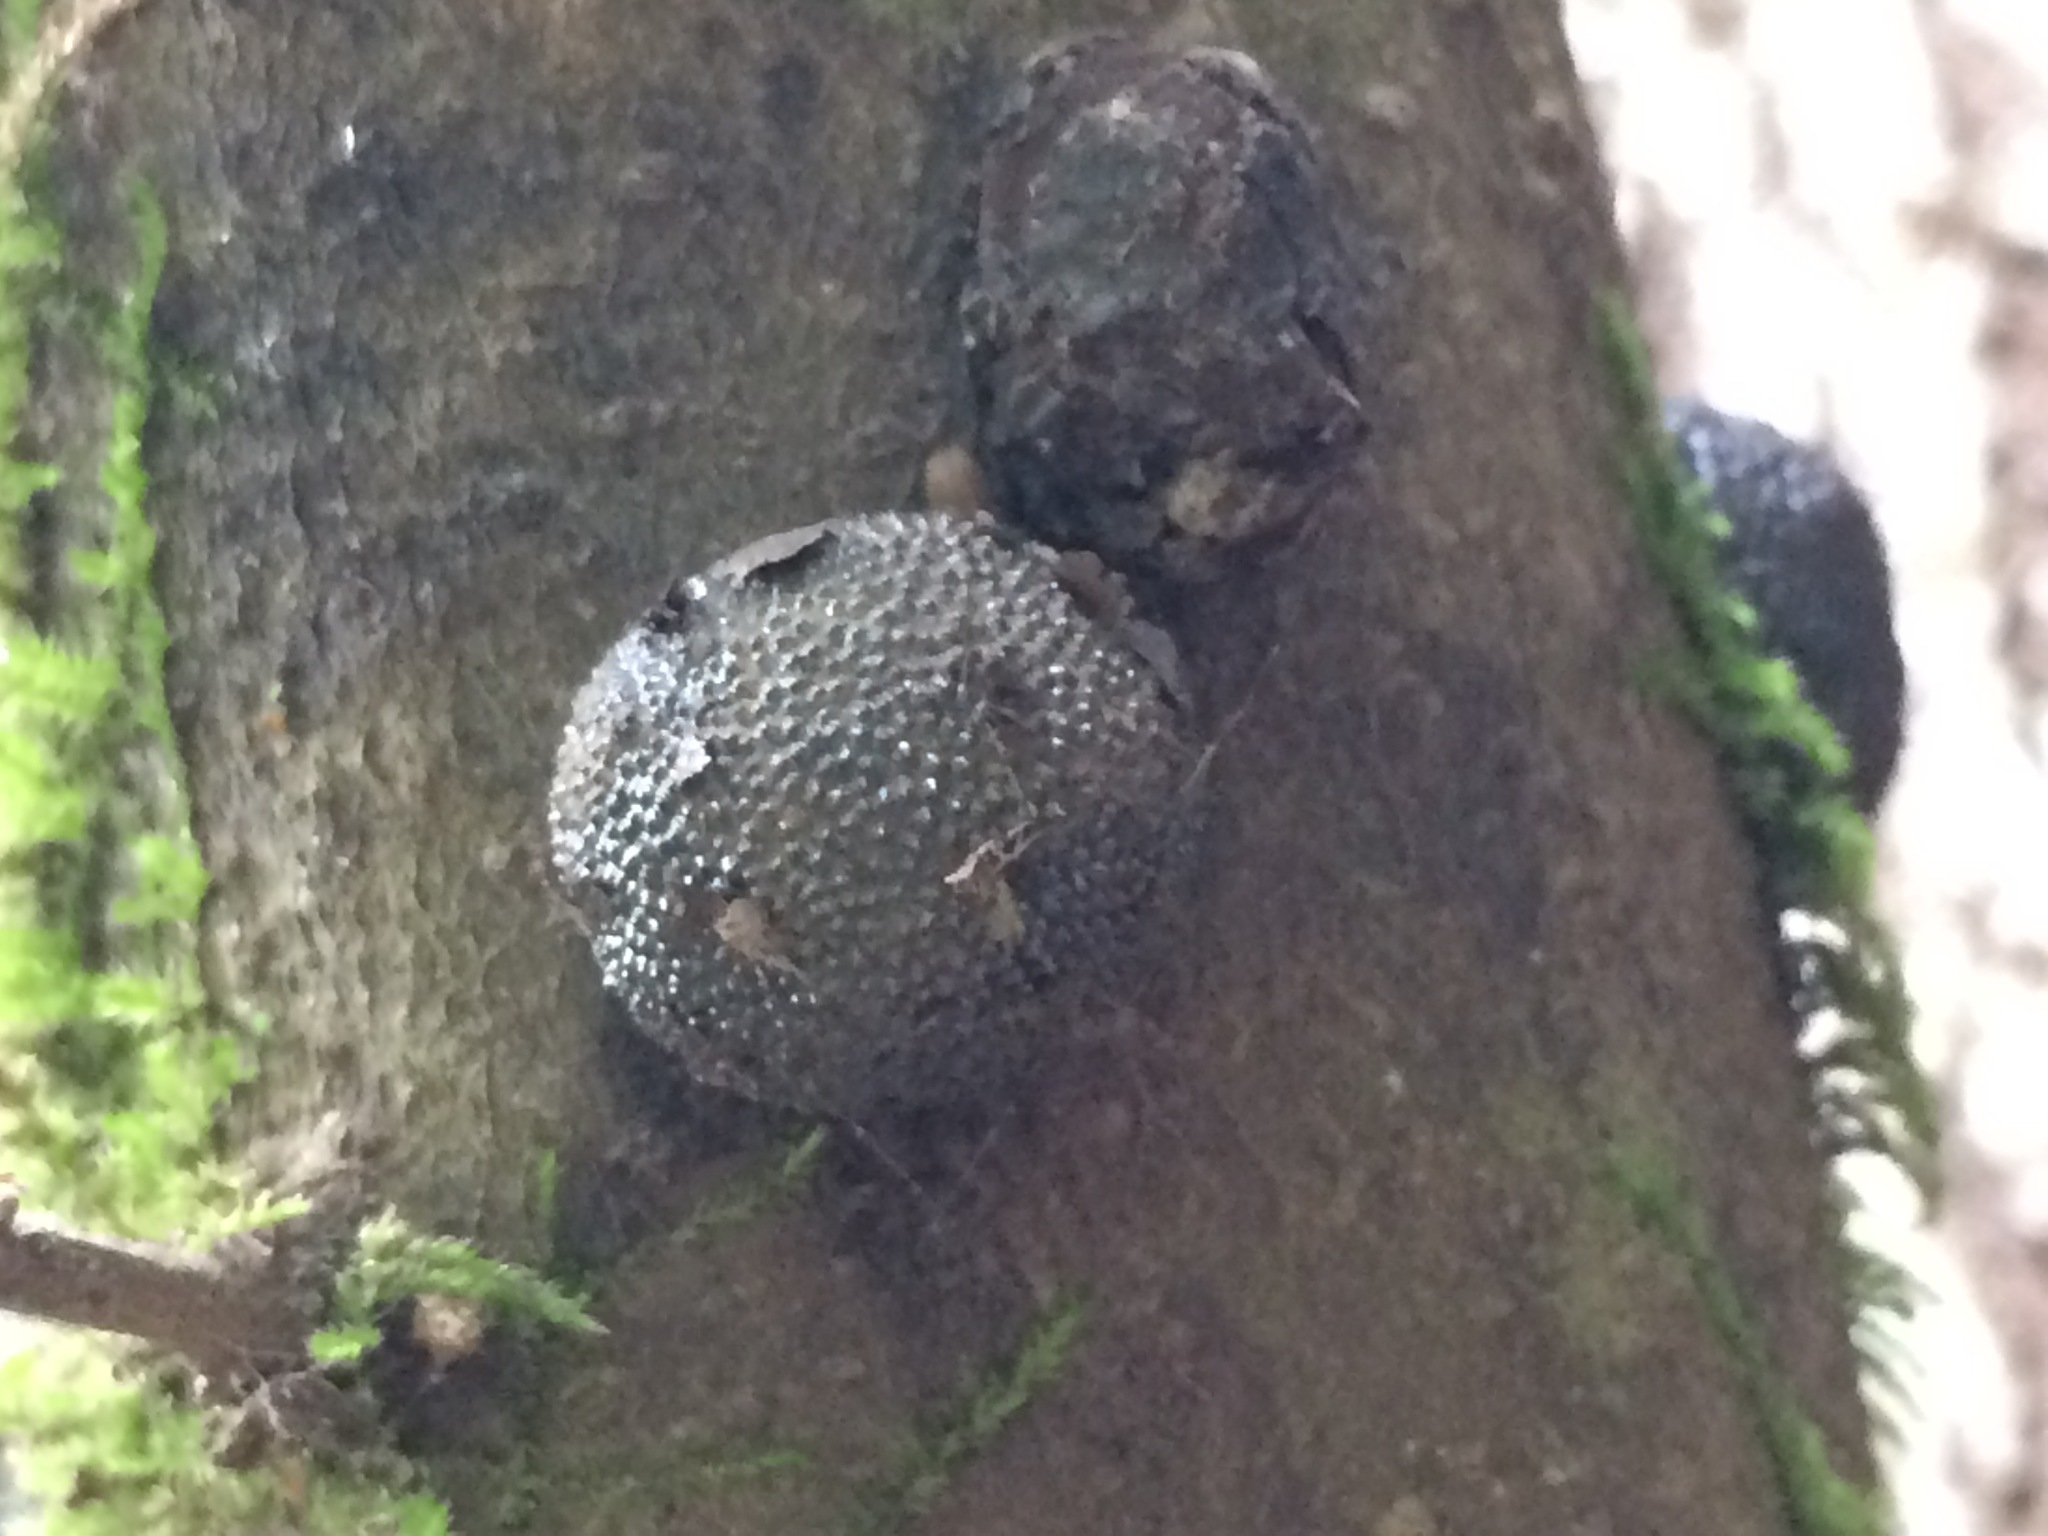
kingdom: Fungi
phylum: Ascomycota
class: Sordariomycetes
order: Xylariales
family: Hypoxylaceae
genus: Annulohypoxylon
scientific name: Annulohypoxylon thouarsianum
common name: Cramp balls
